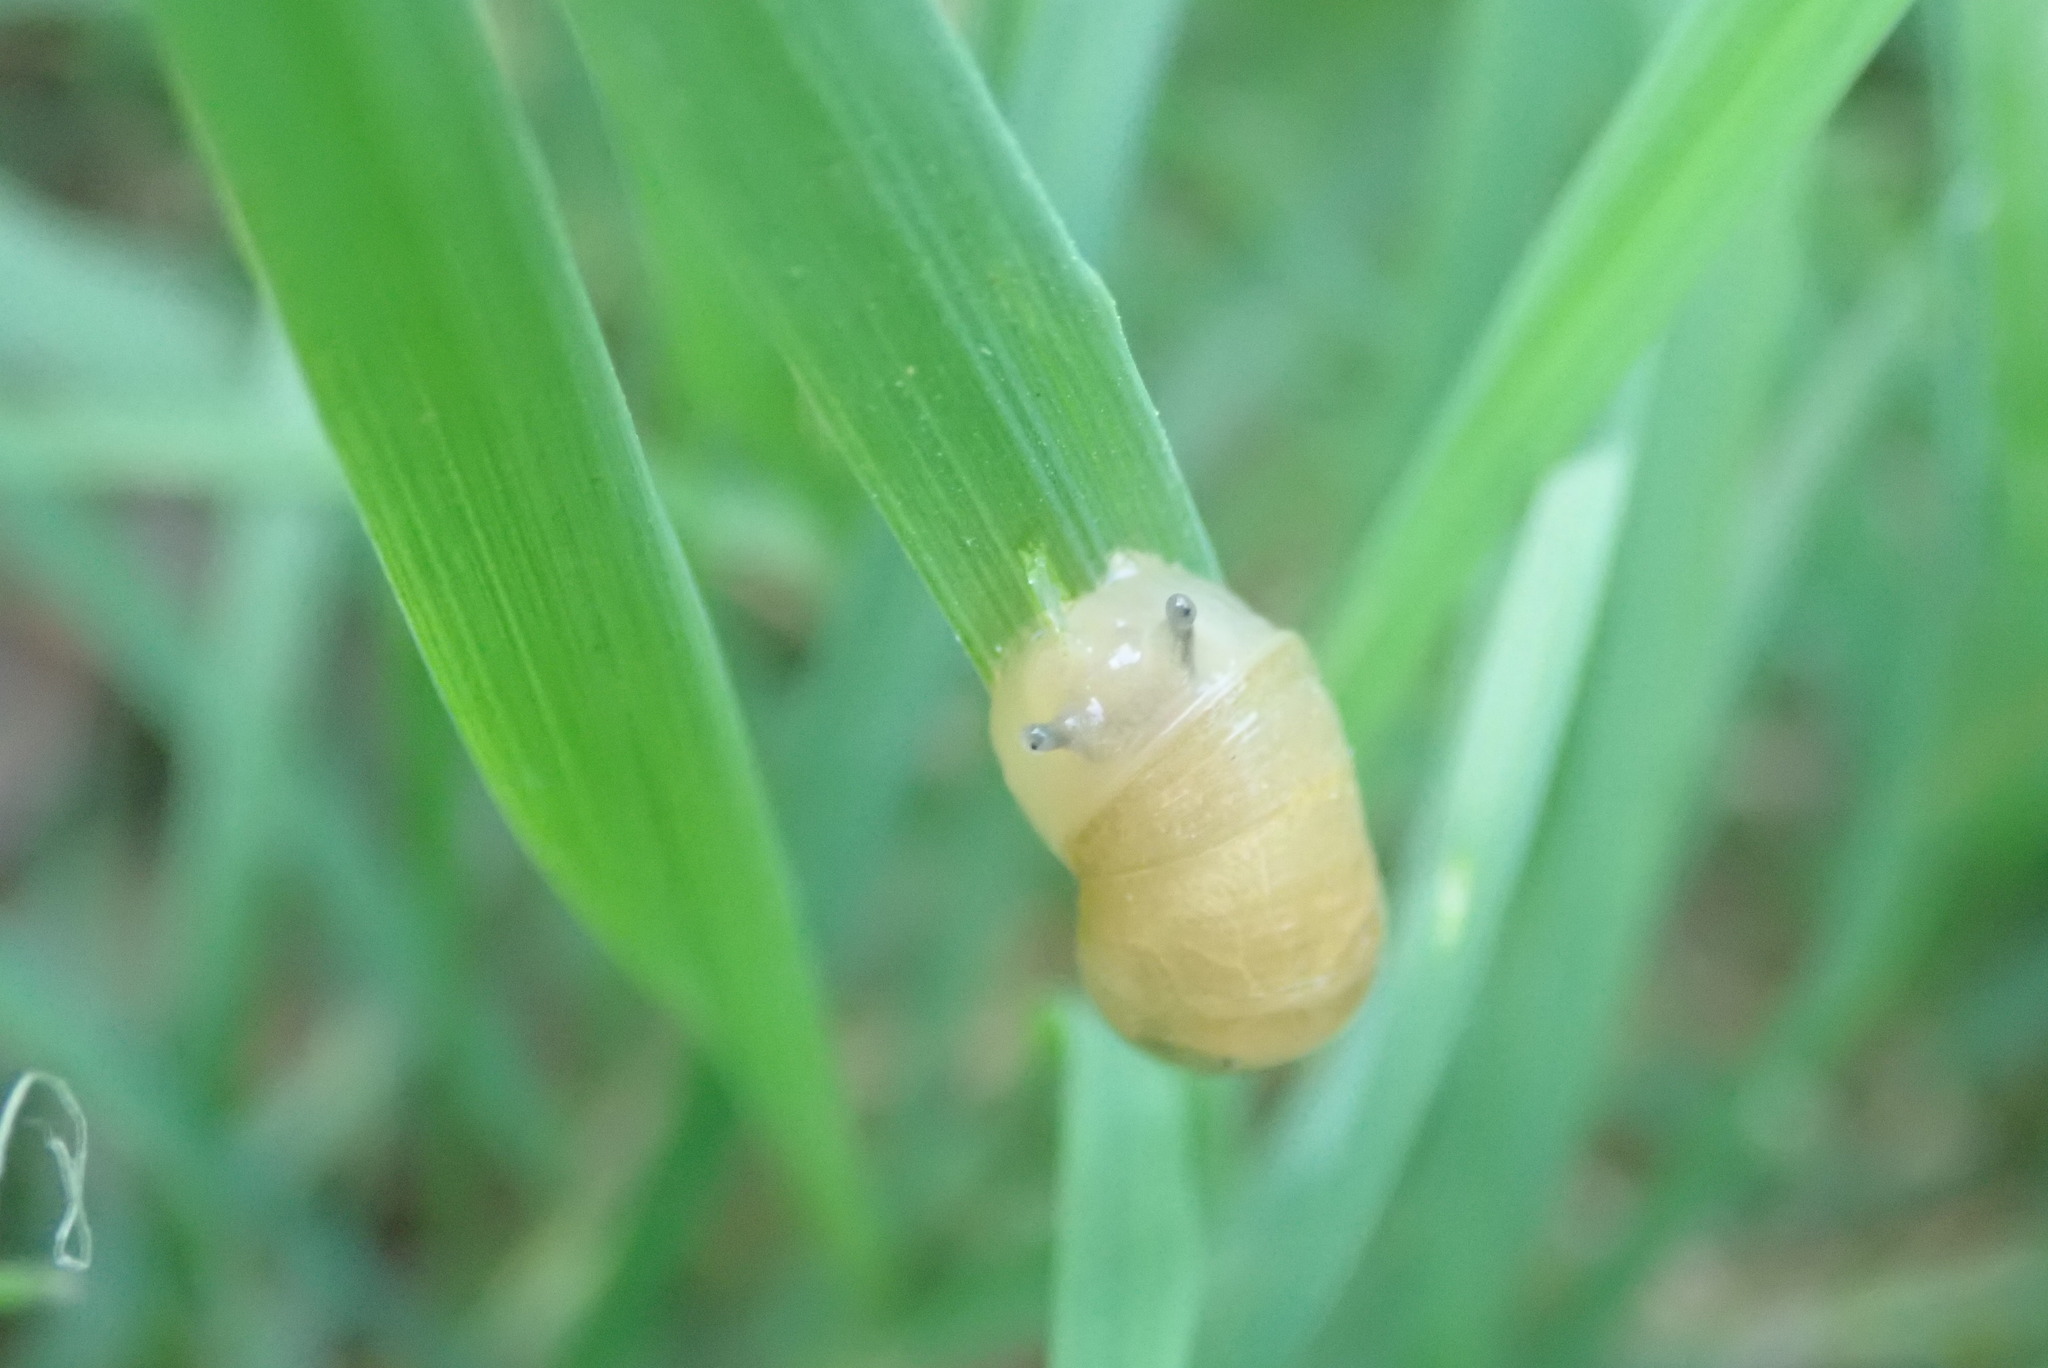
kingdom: Animalia
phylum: Mollusca
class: Gastropoda
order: Stylommatophora
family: Succineidae
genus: Succinea
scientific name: Succinea putris
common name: European ambersnail
